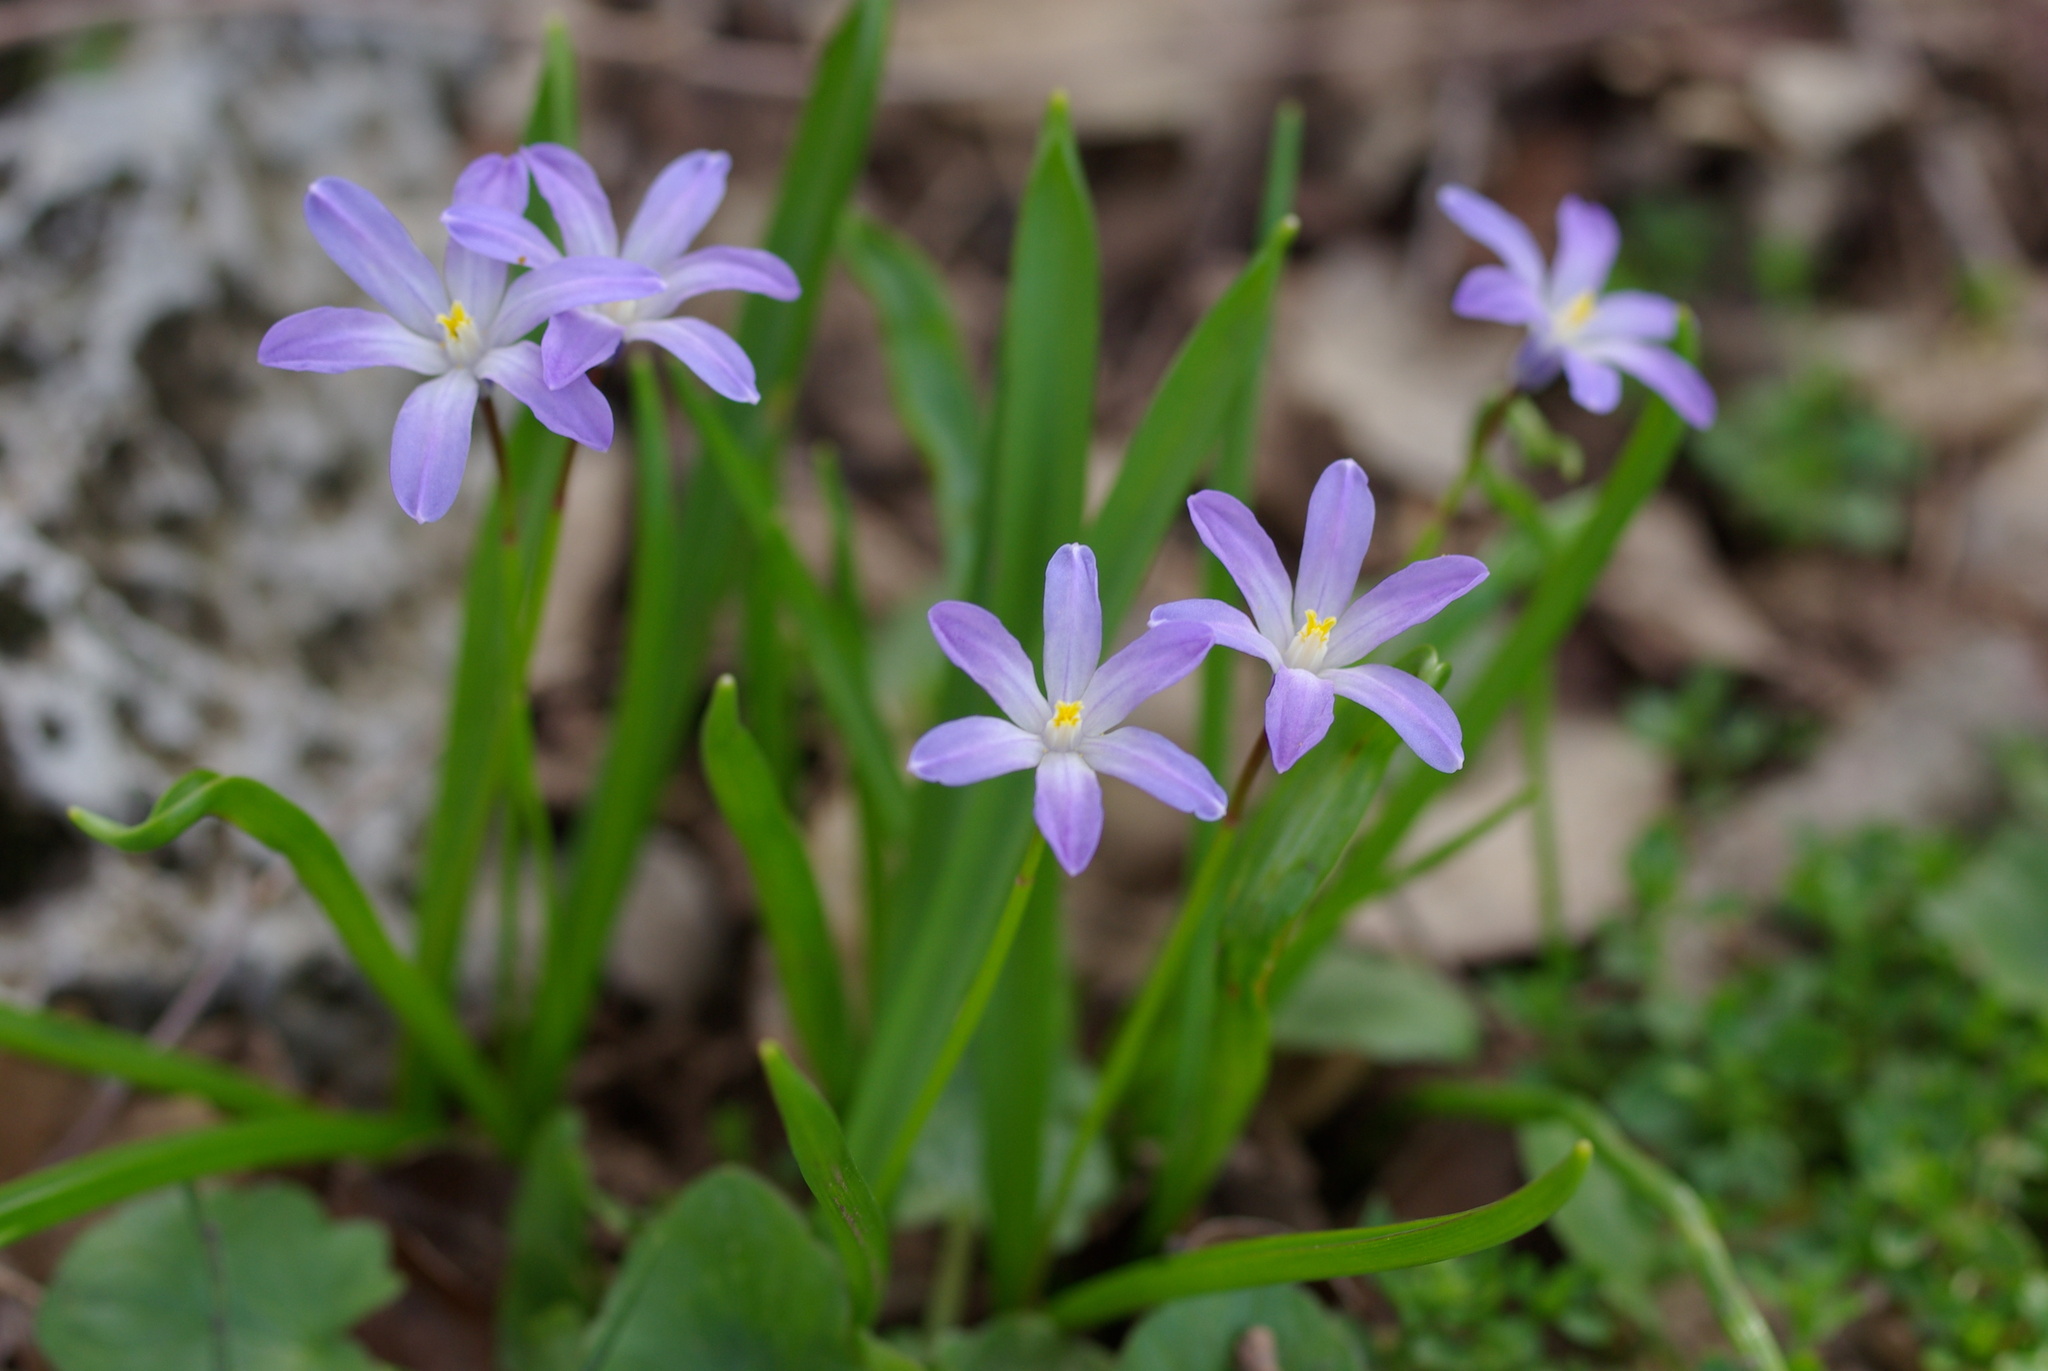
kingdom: Plantae
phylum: Tracheophyta
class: Liliopsida
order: Asparagales
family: Asparagaceae
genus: Scilla
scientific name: Scilla nana
